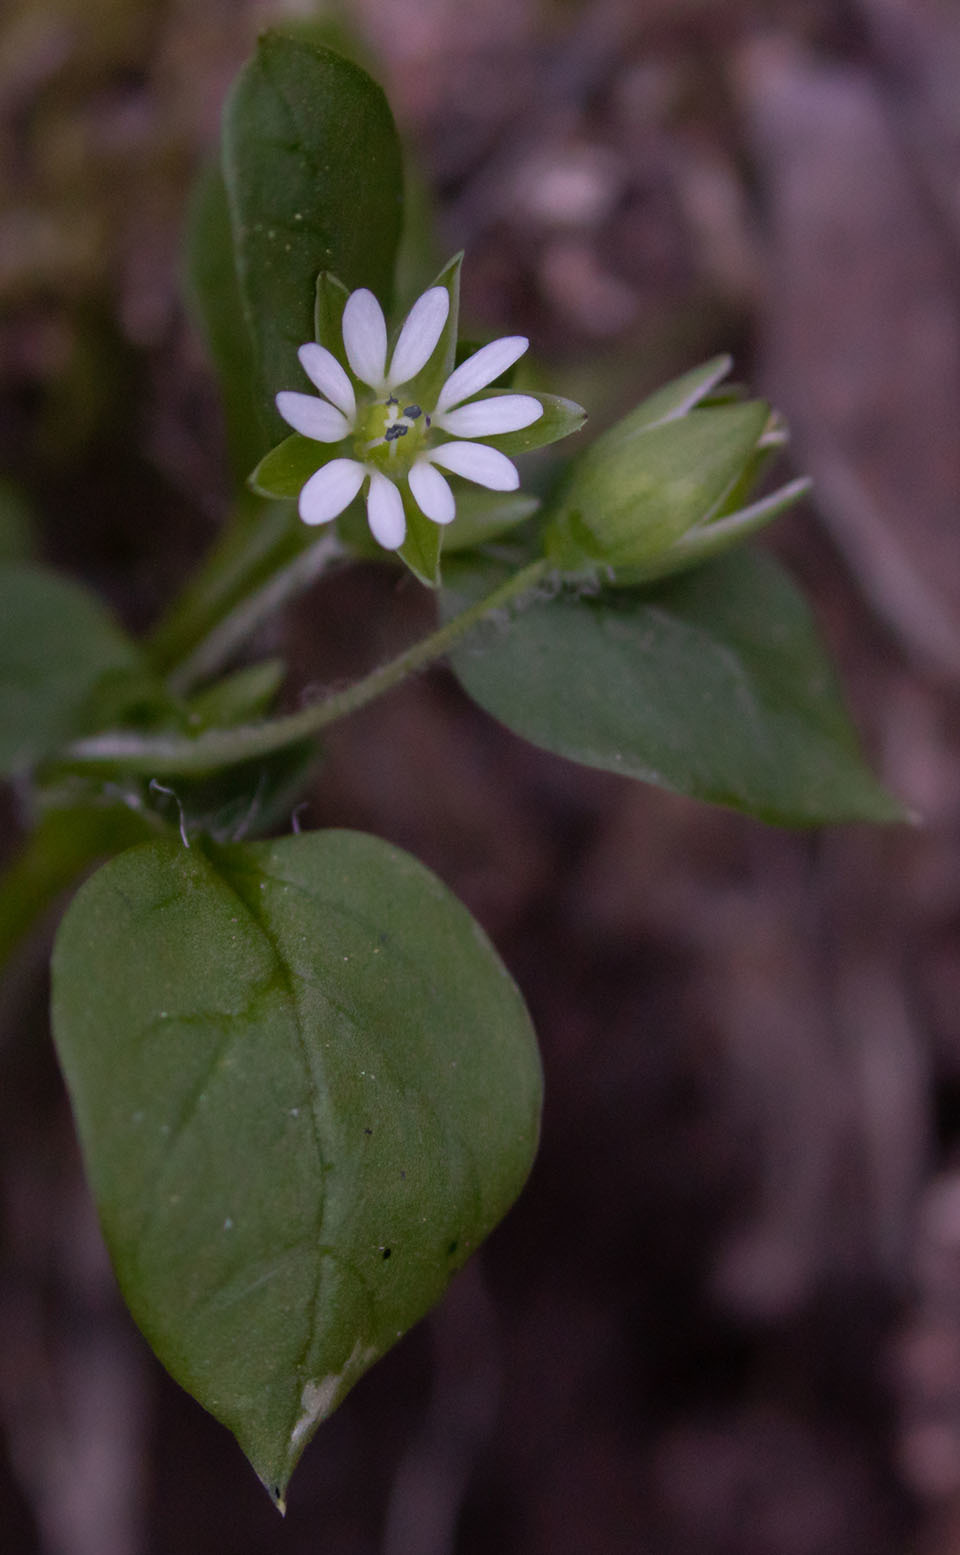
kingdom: Plantae
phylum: Tracheophyta
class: Magnoliopsida
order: Caryophyllales
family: Caryophyllaceae
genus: Stellaria
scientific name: Stellaria media
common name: Common chickweed
